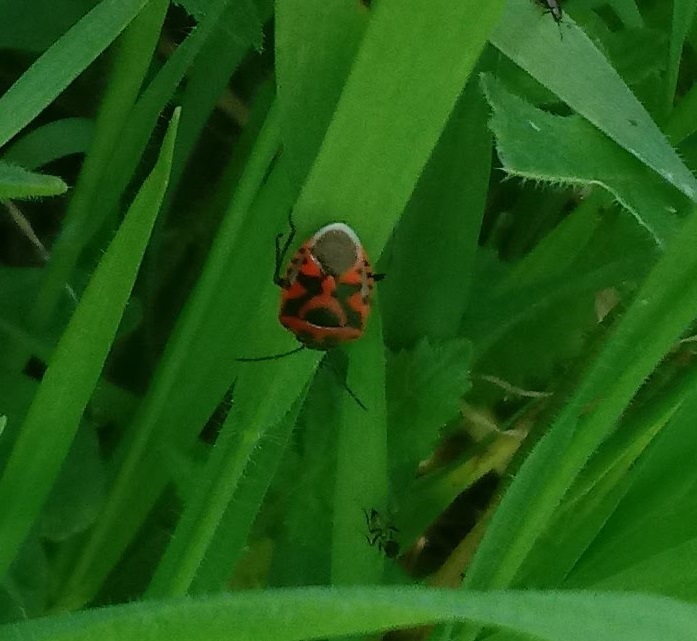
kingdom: Animalia
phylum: Arthropoda
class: Insecta
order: Hemiptera
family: Pentatomidae
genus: Eurydema
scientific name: Eurydema ornata
